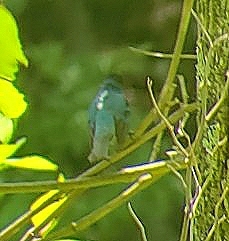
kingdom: Animalia
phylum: Chordata
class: Aves
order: Passeriformes
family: Cardinalidae
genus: Passerina
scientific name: Passerina cyanea
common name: Indigo bunting
